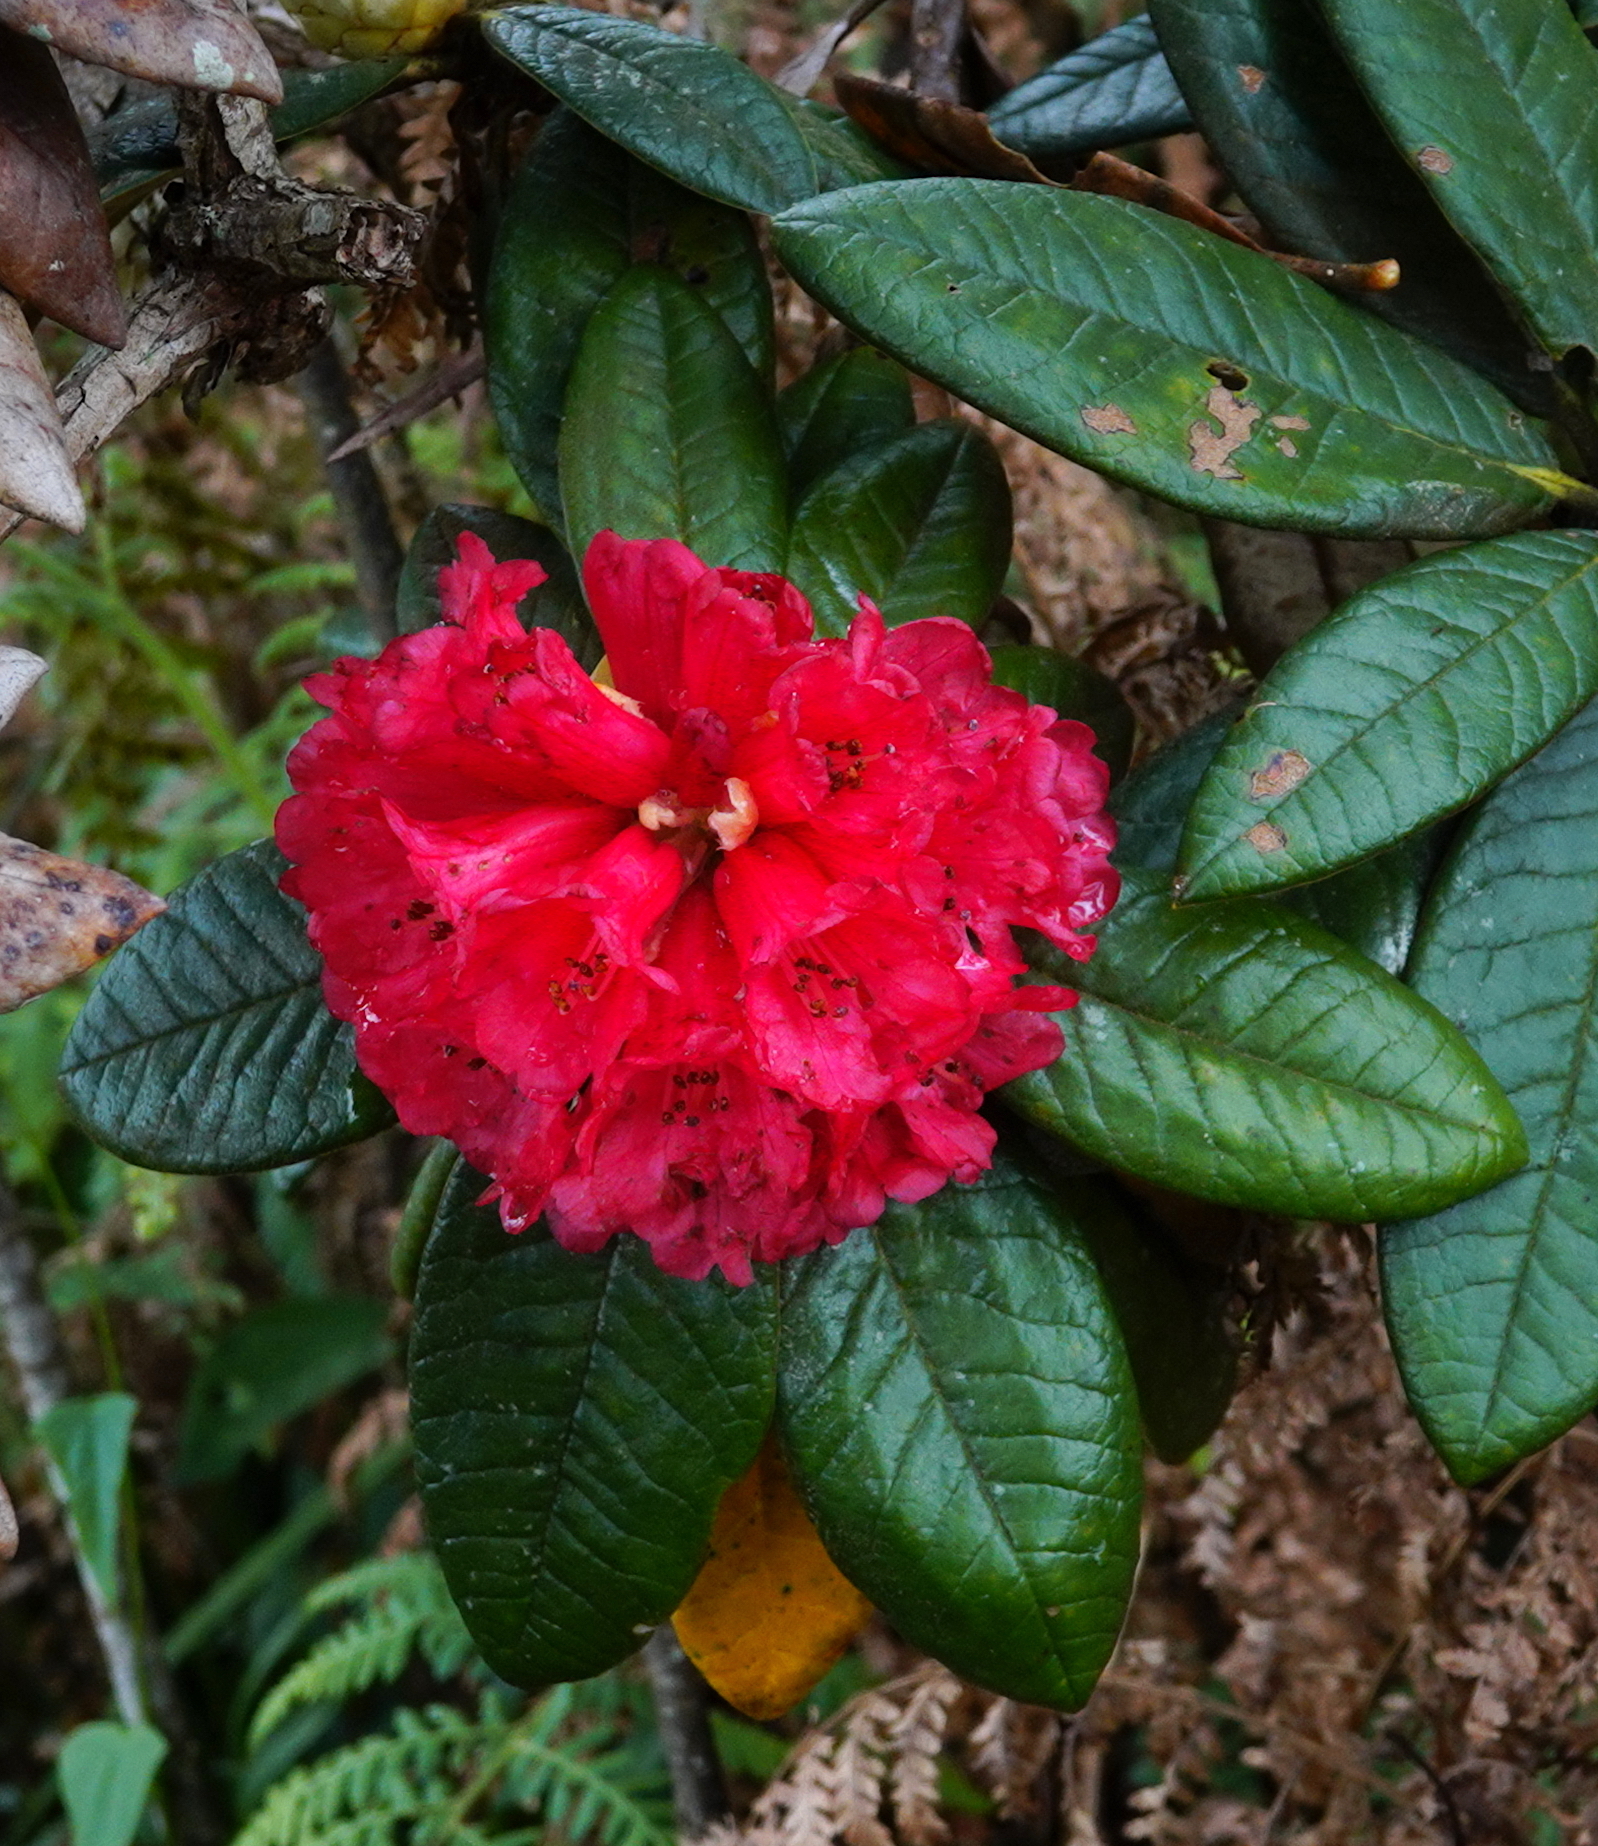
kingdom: Plantae
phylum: Tracheophyta
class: Magnoliopsida
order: Ericales
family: Ericaceae
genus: Rhododendron
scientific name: Rhododendron arboreum
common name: Tree rhododendron
